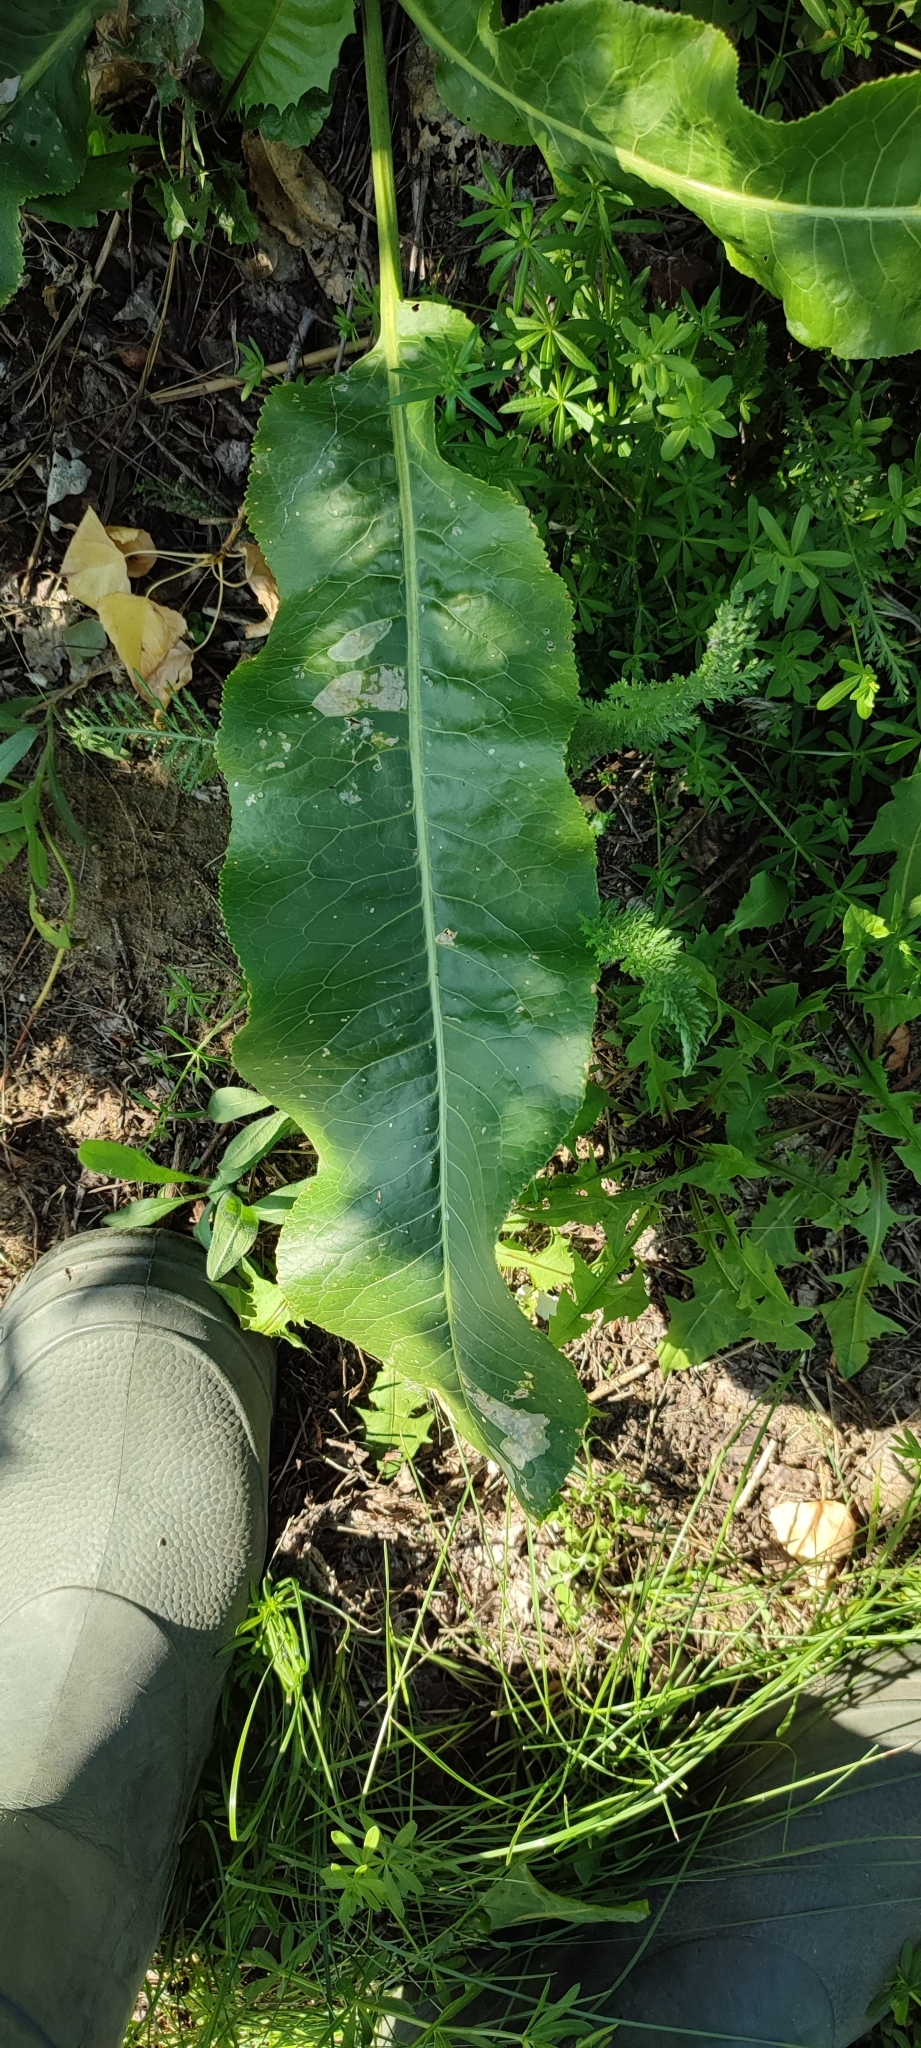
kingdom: Plantae
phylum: Tracheophyta
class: Magnoliopsida
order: Brassicales
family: Brassicaceae
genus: Armoracia
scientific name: Armoracia rusticana
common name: Horseradish
